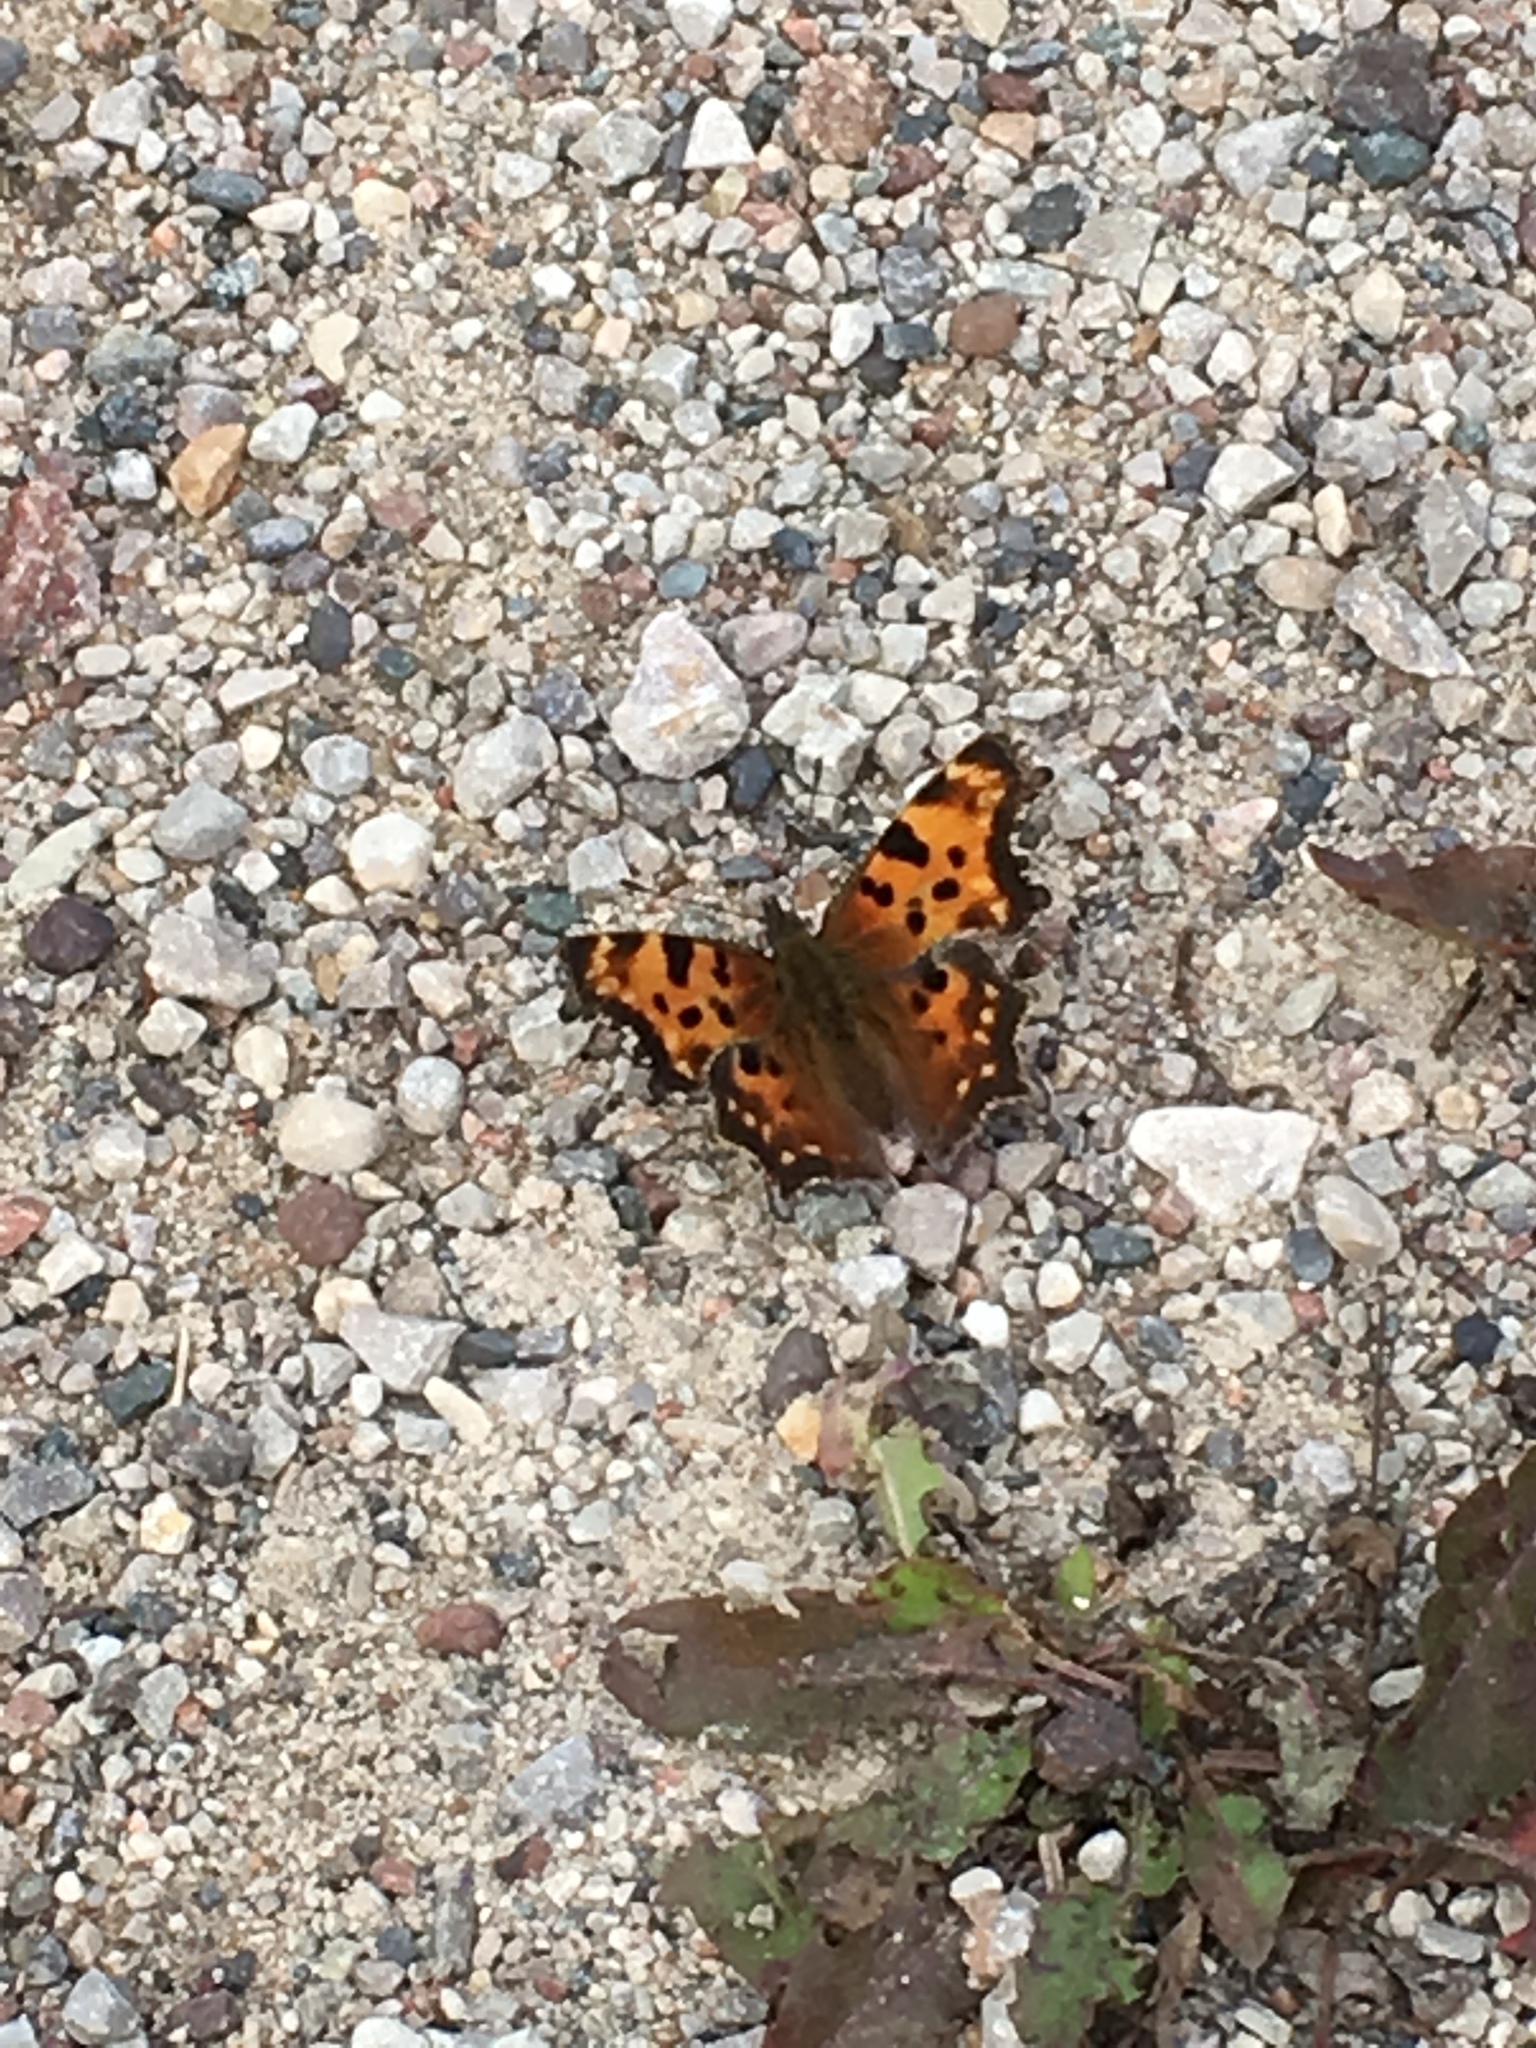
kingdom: Animalia
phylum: Arthropoda
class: Insecta
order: Lepidoptera
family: Nymphalidae
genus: Polygonia
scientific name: Polygonia faunus
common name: Green comma
